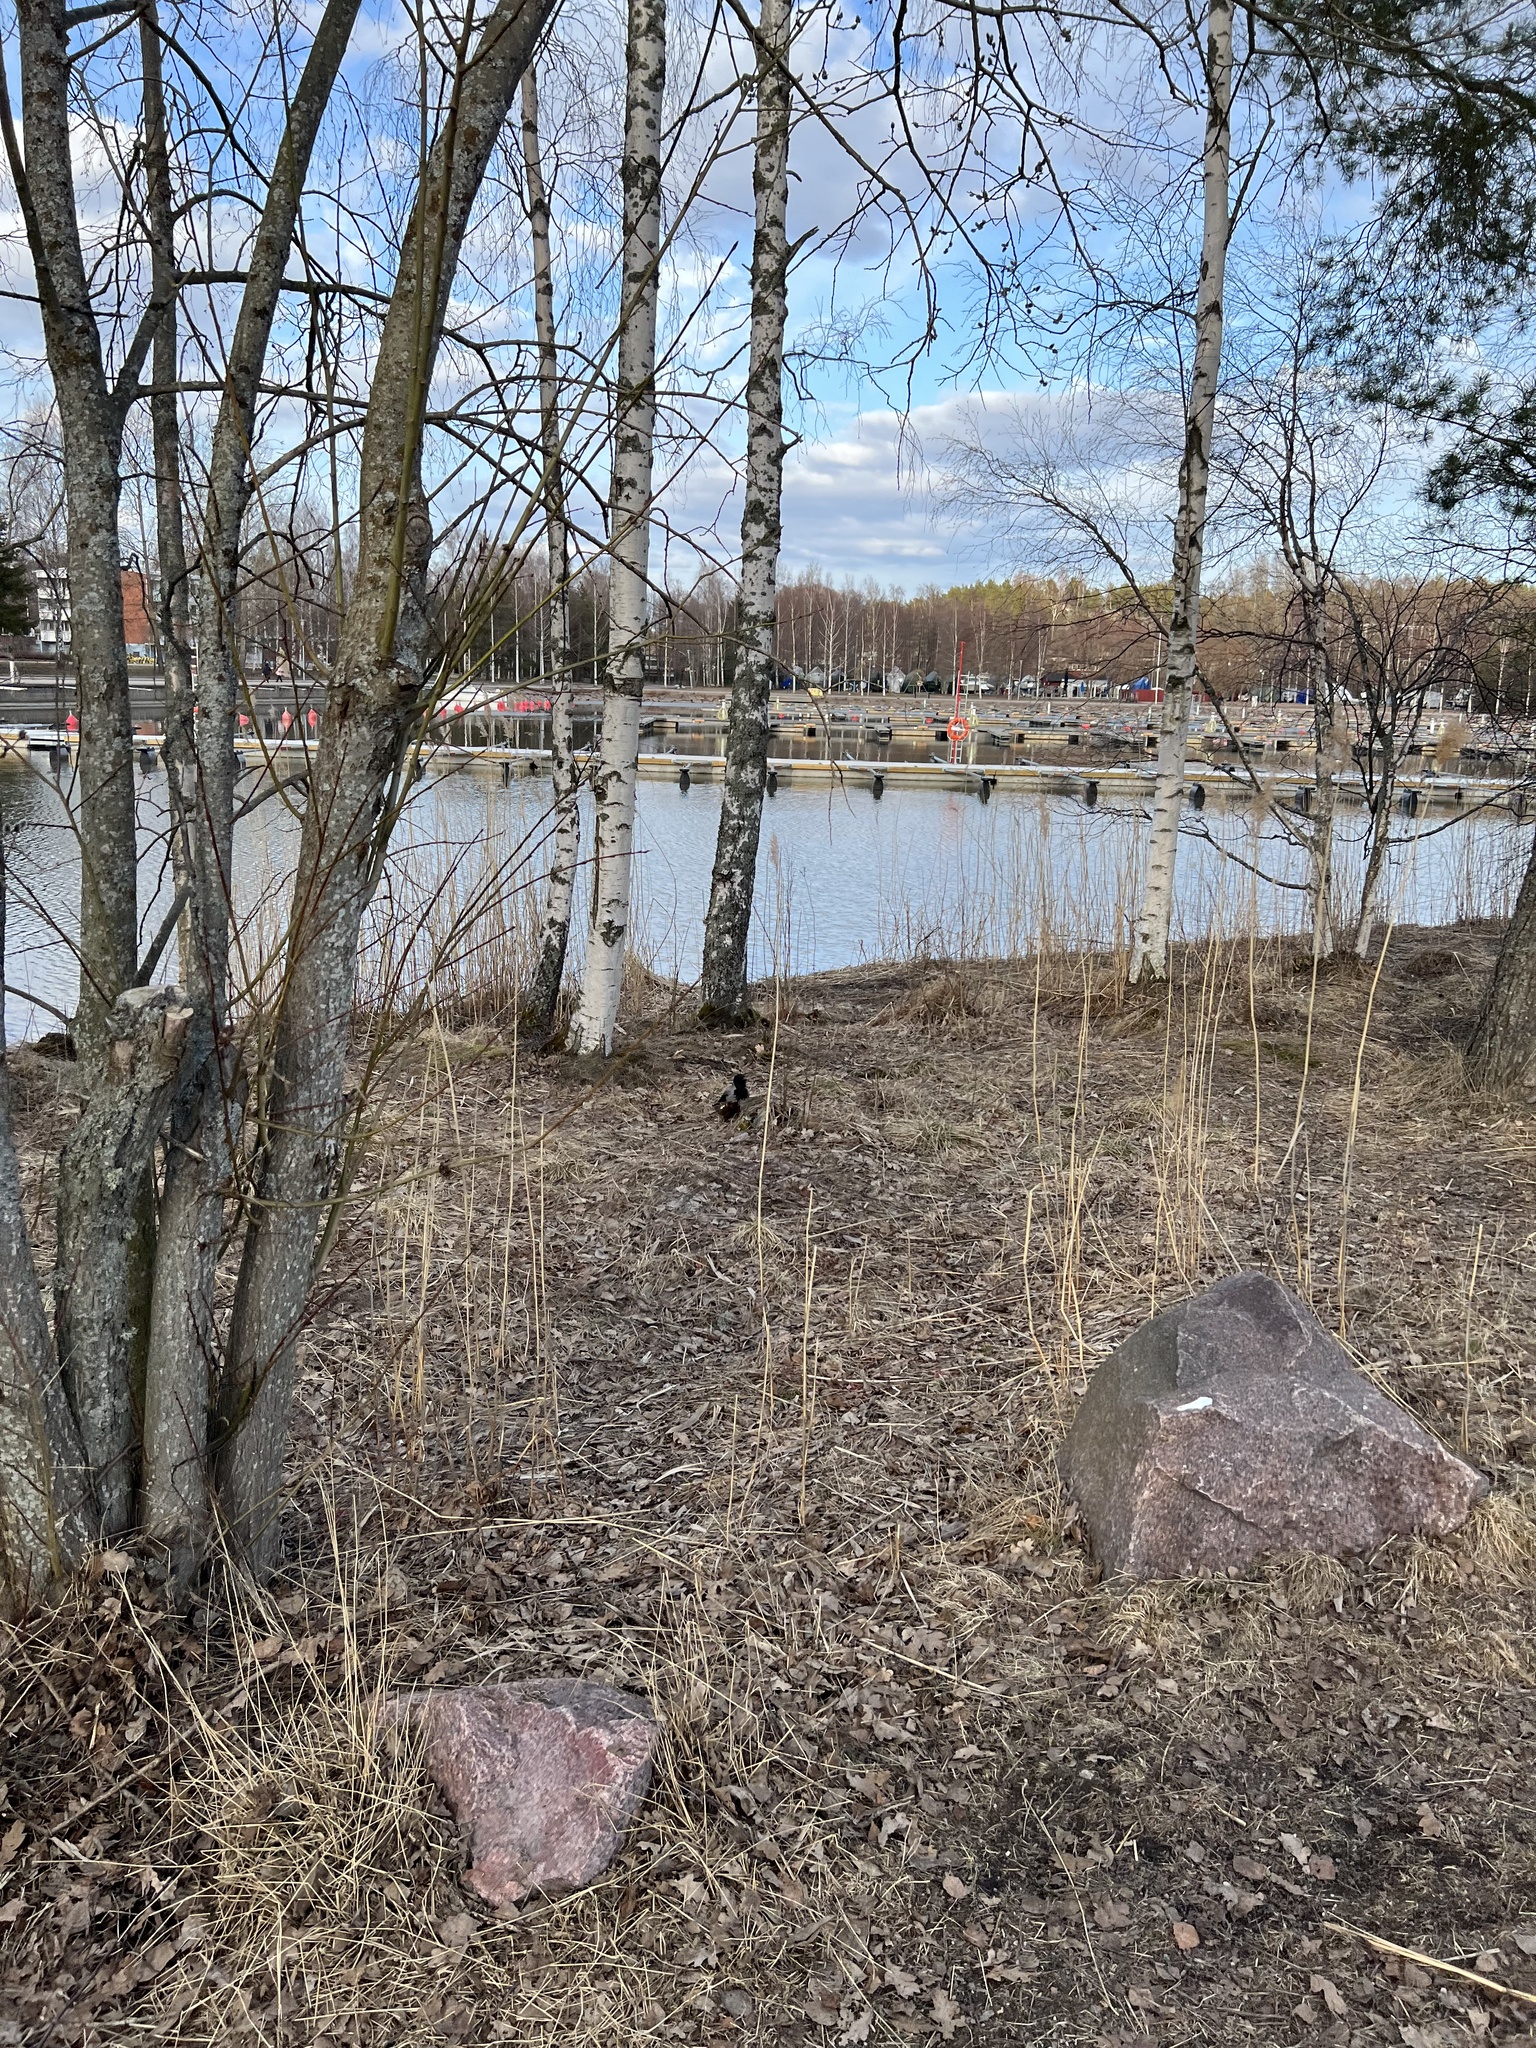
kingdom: Animalia
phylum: Chordata
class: Aves
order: Passeriformes
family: Corvidae
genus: Corvus
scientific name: Corvus cornix
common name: Hooded crow
